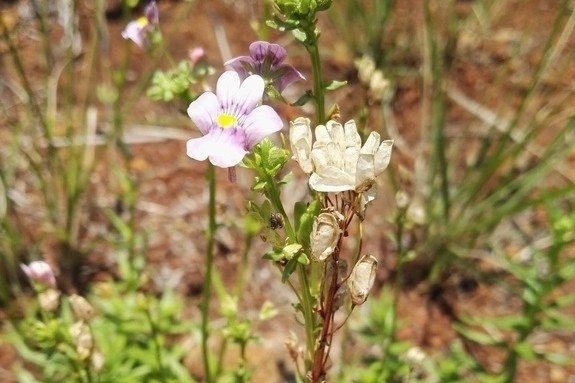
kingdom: Plantae
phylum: Tracheophyta
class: Magnoliopsida
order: Lamiales
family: Scrophulariaceae
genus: Nemesia
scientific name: Nemesia fruticans
